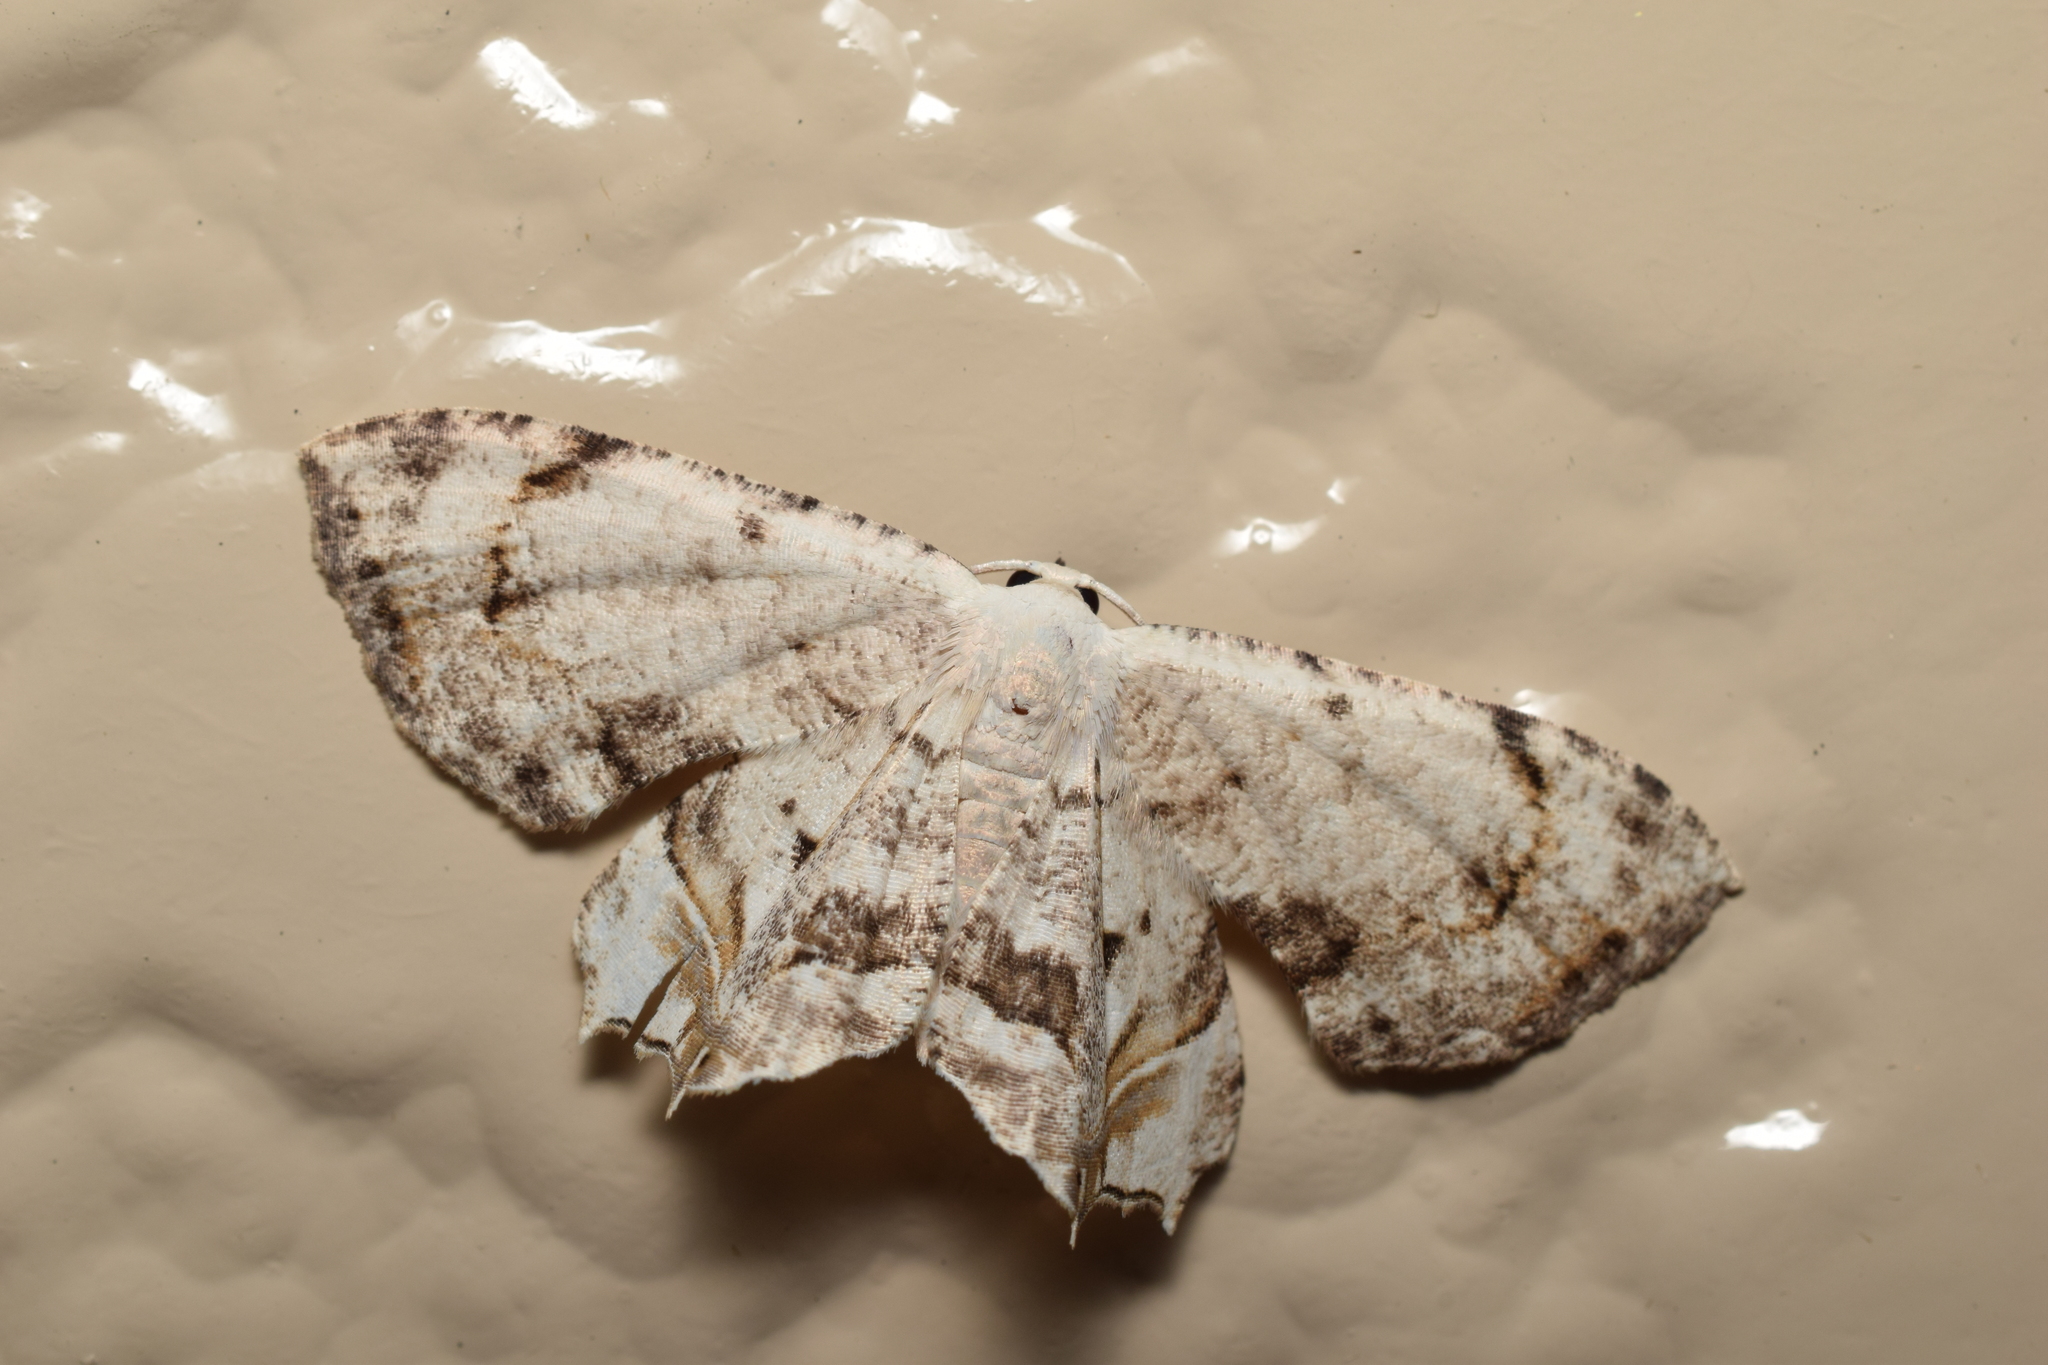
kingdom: Animalia
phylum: Arthropoda
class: Insecta
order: Lepidoptera
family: Uraniidae
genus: Dysaethria
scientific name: Dysaethria cretacea
